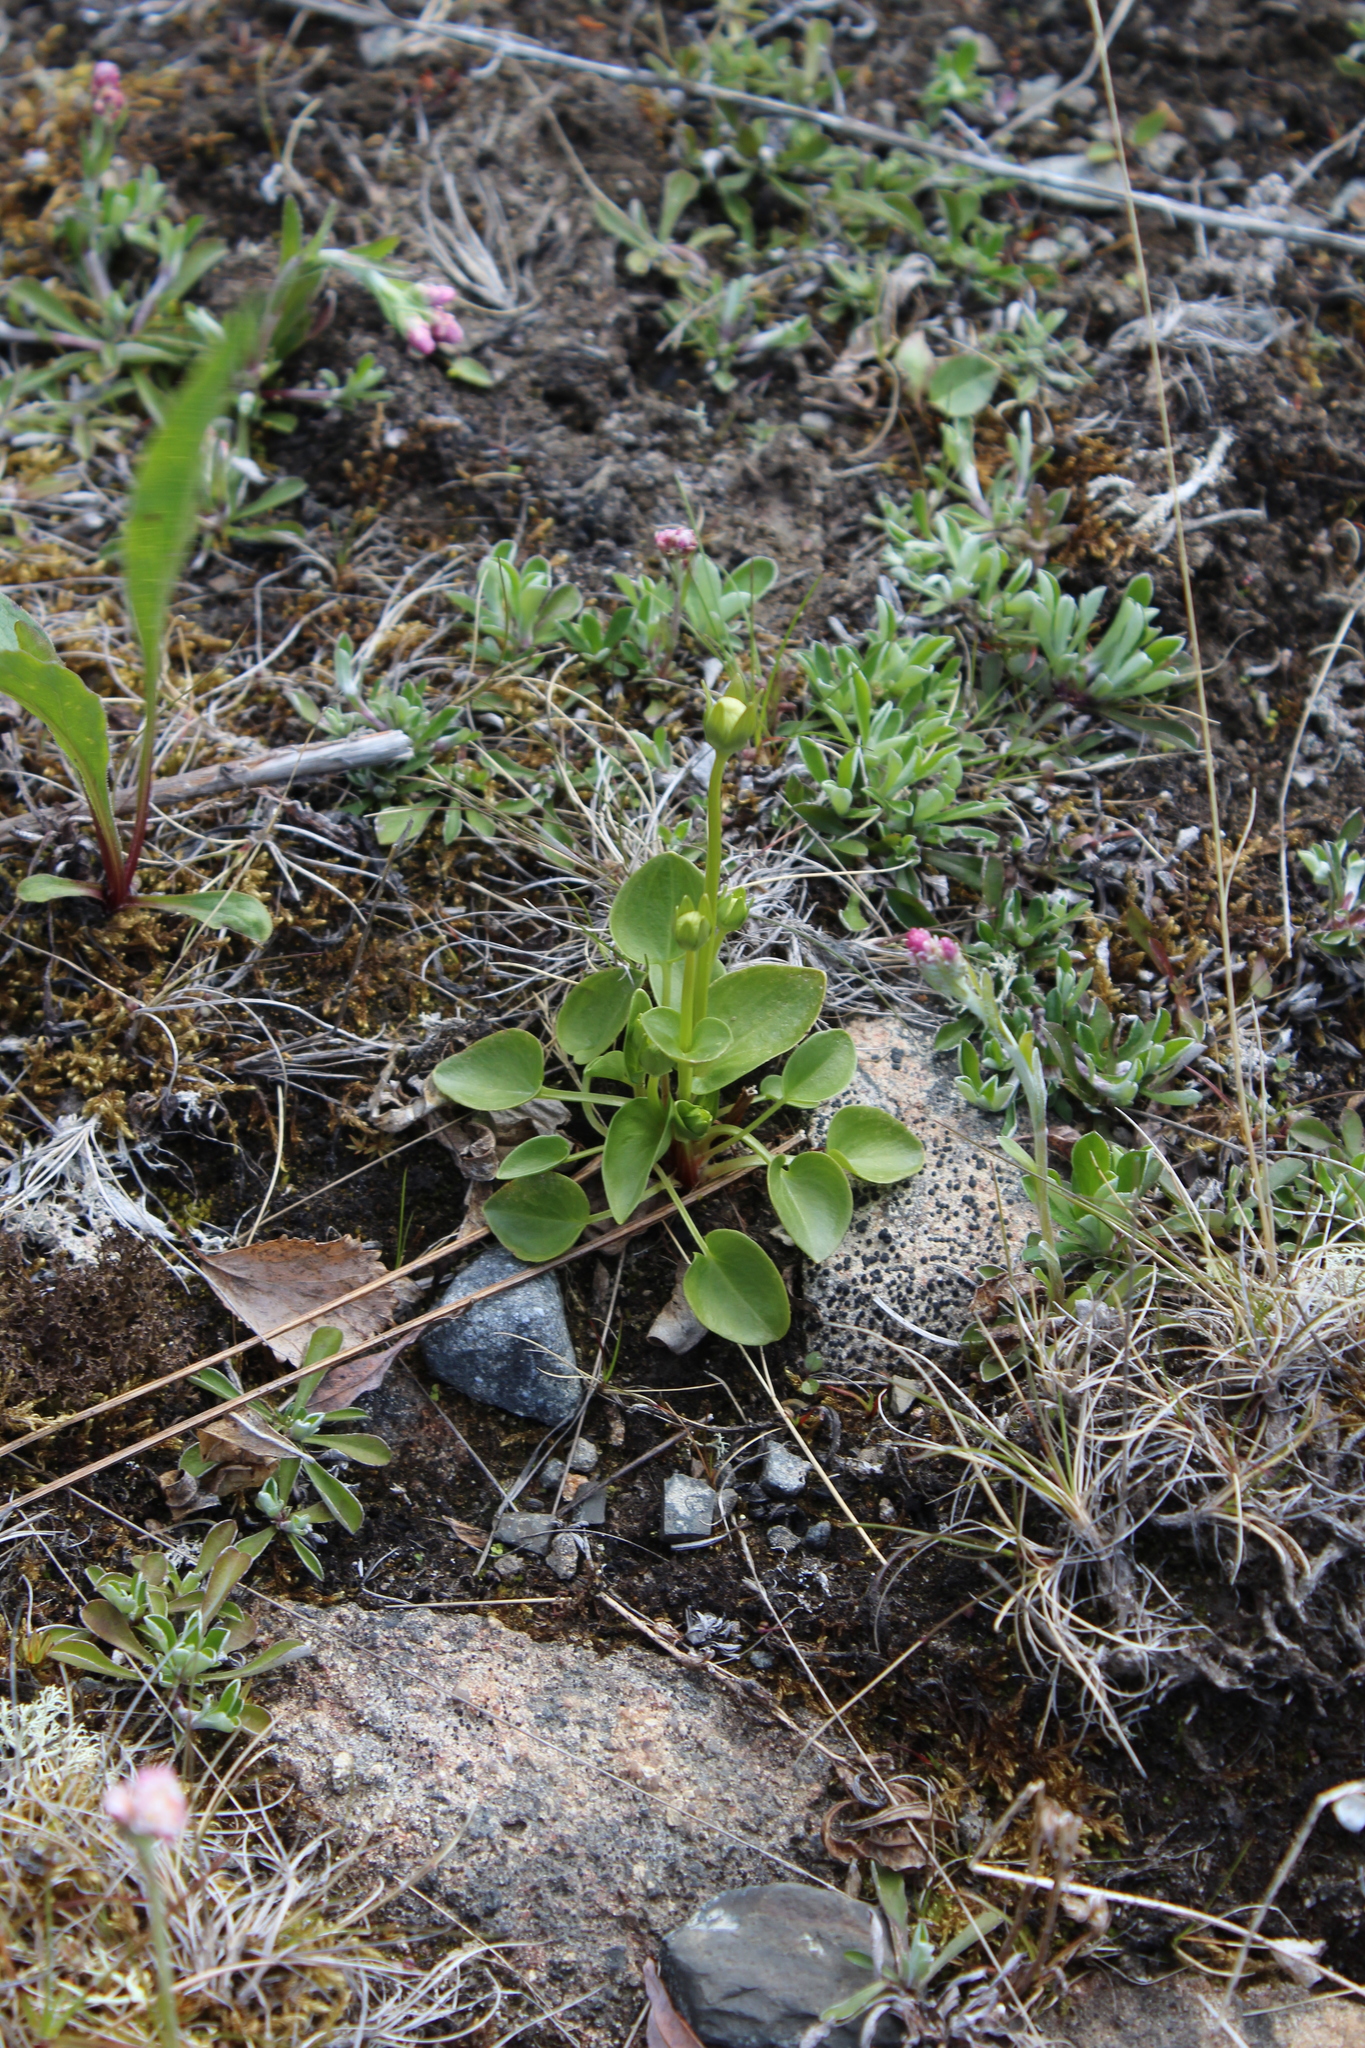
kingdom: Plantae
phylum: Tracheophyta
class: Magnoliopsida
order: Celastrales
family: Parnassiaceae
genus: Parnassia
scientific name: Parnassia palustris
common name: Grass-of-parnassus
